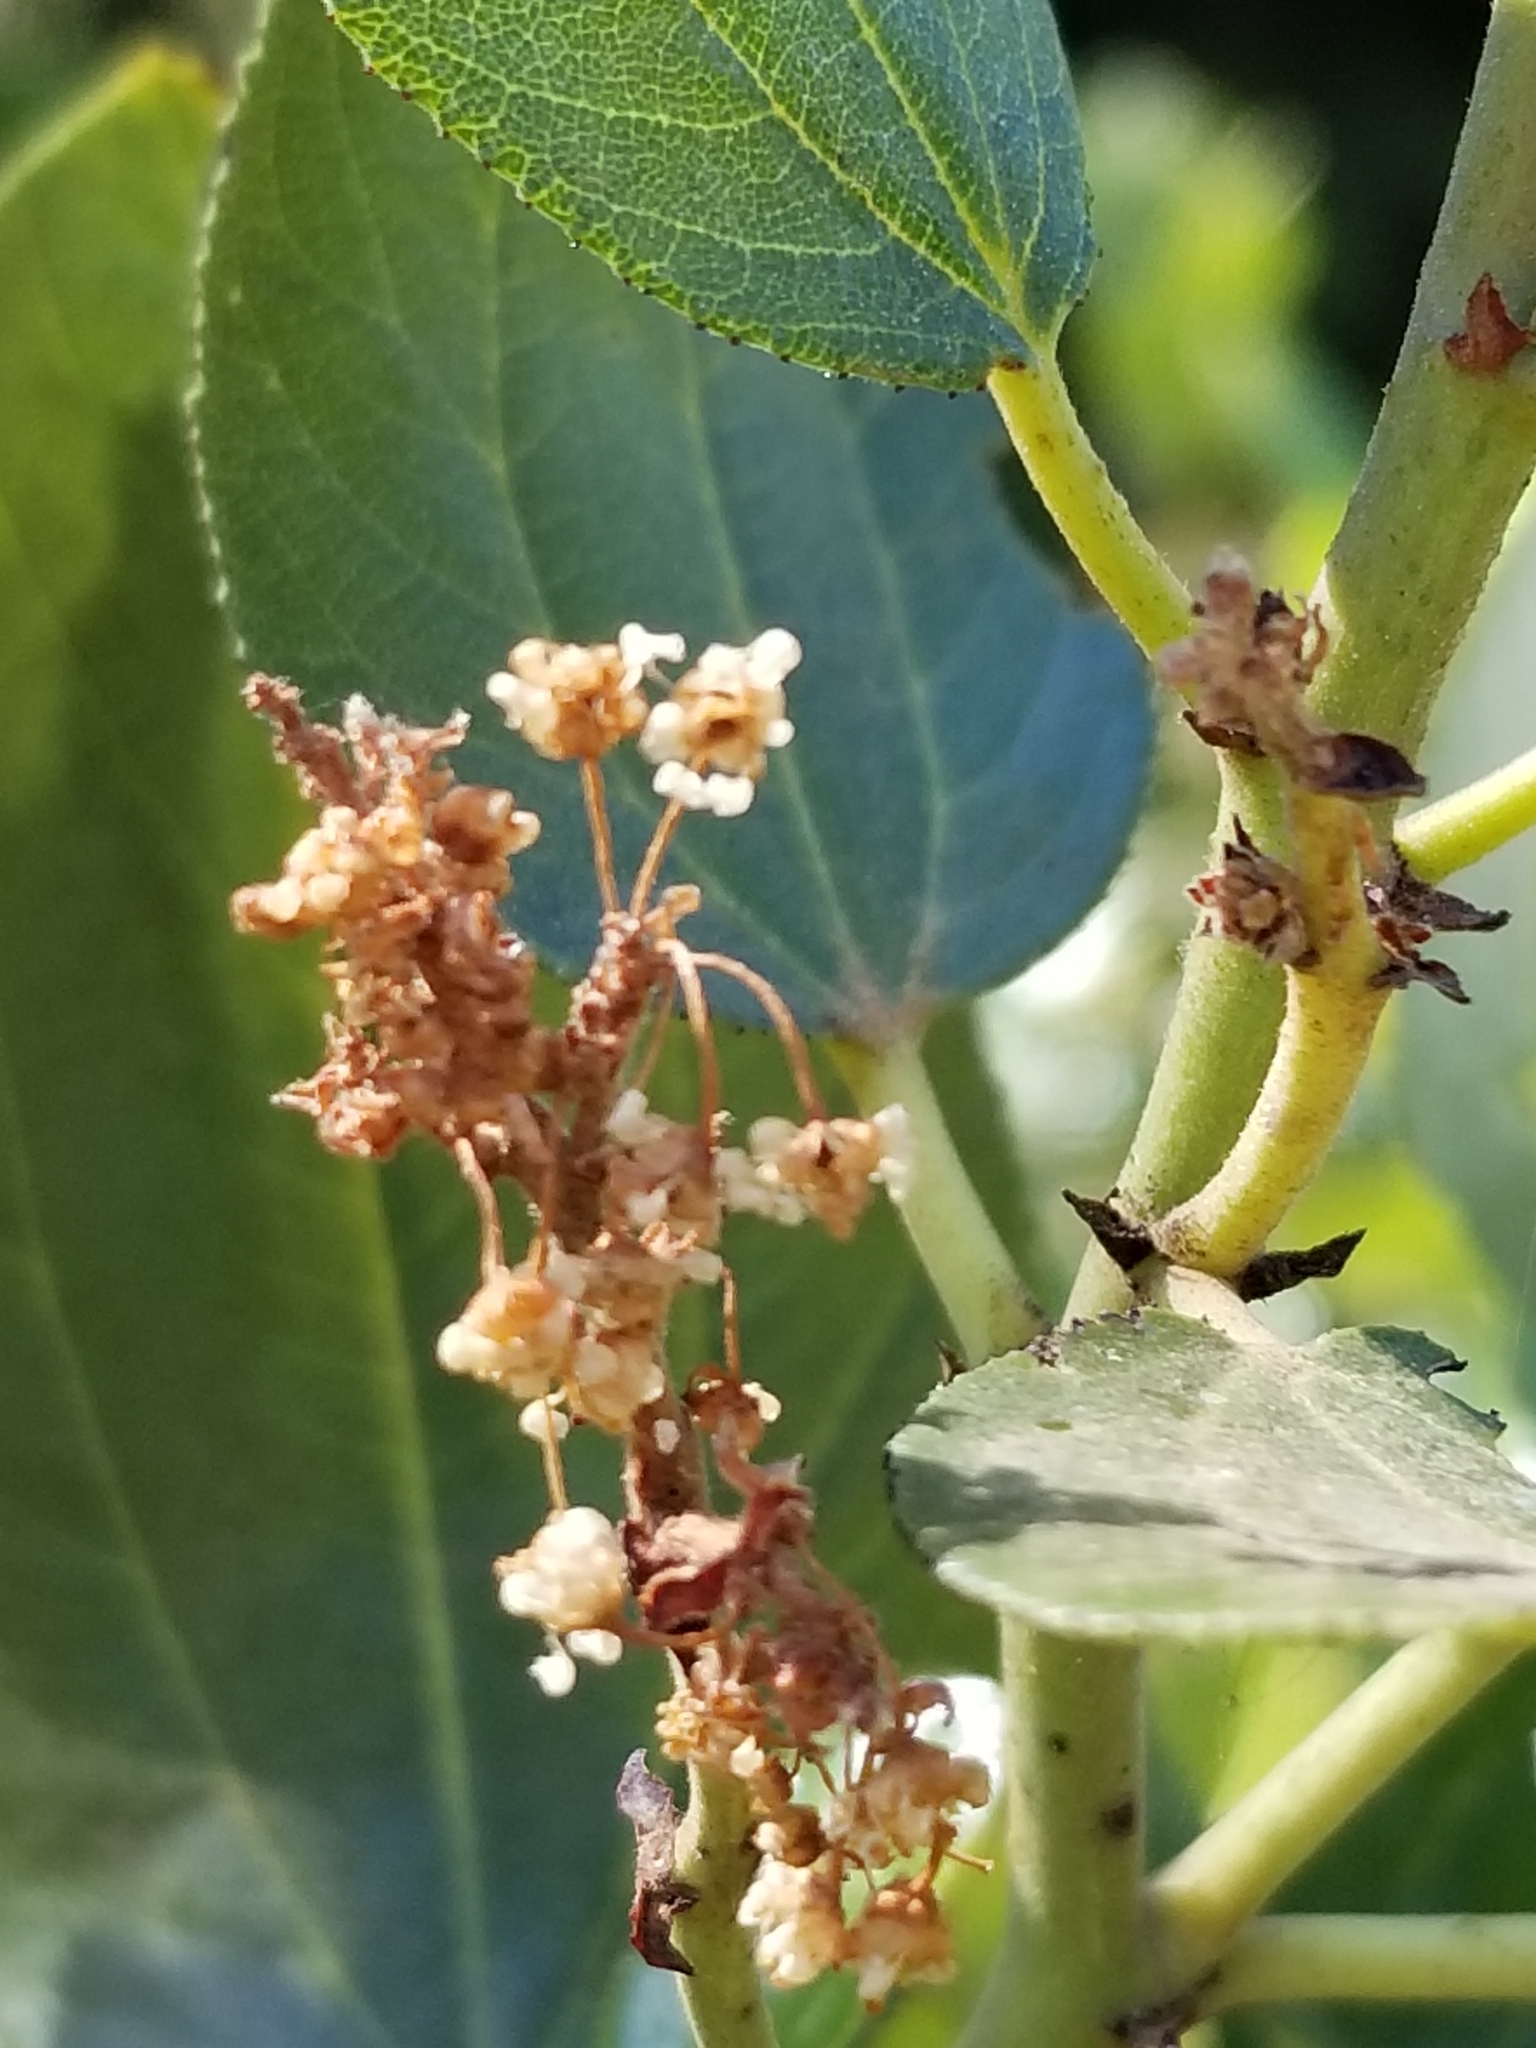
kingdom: Plantae
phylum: Tracheophyta
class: Magnoliopsida
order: Rosales
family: Rhamnaceae
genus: Ceanothus
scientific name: Ceanothus velutinus
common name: Snowbrush
